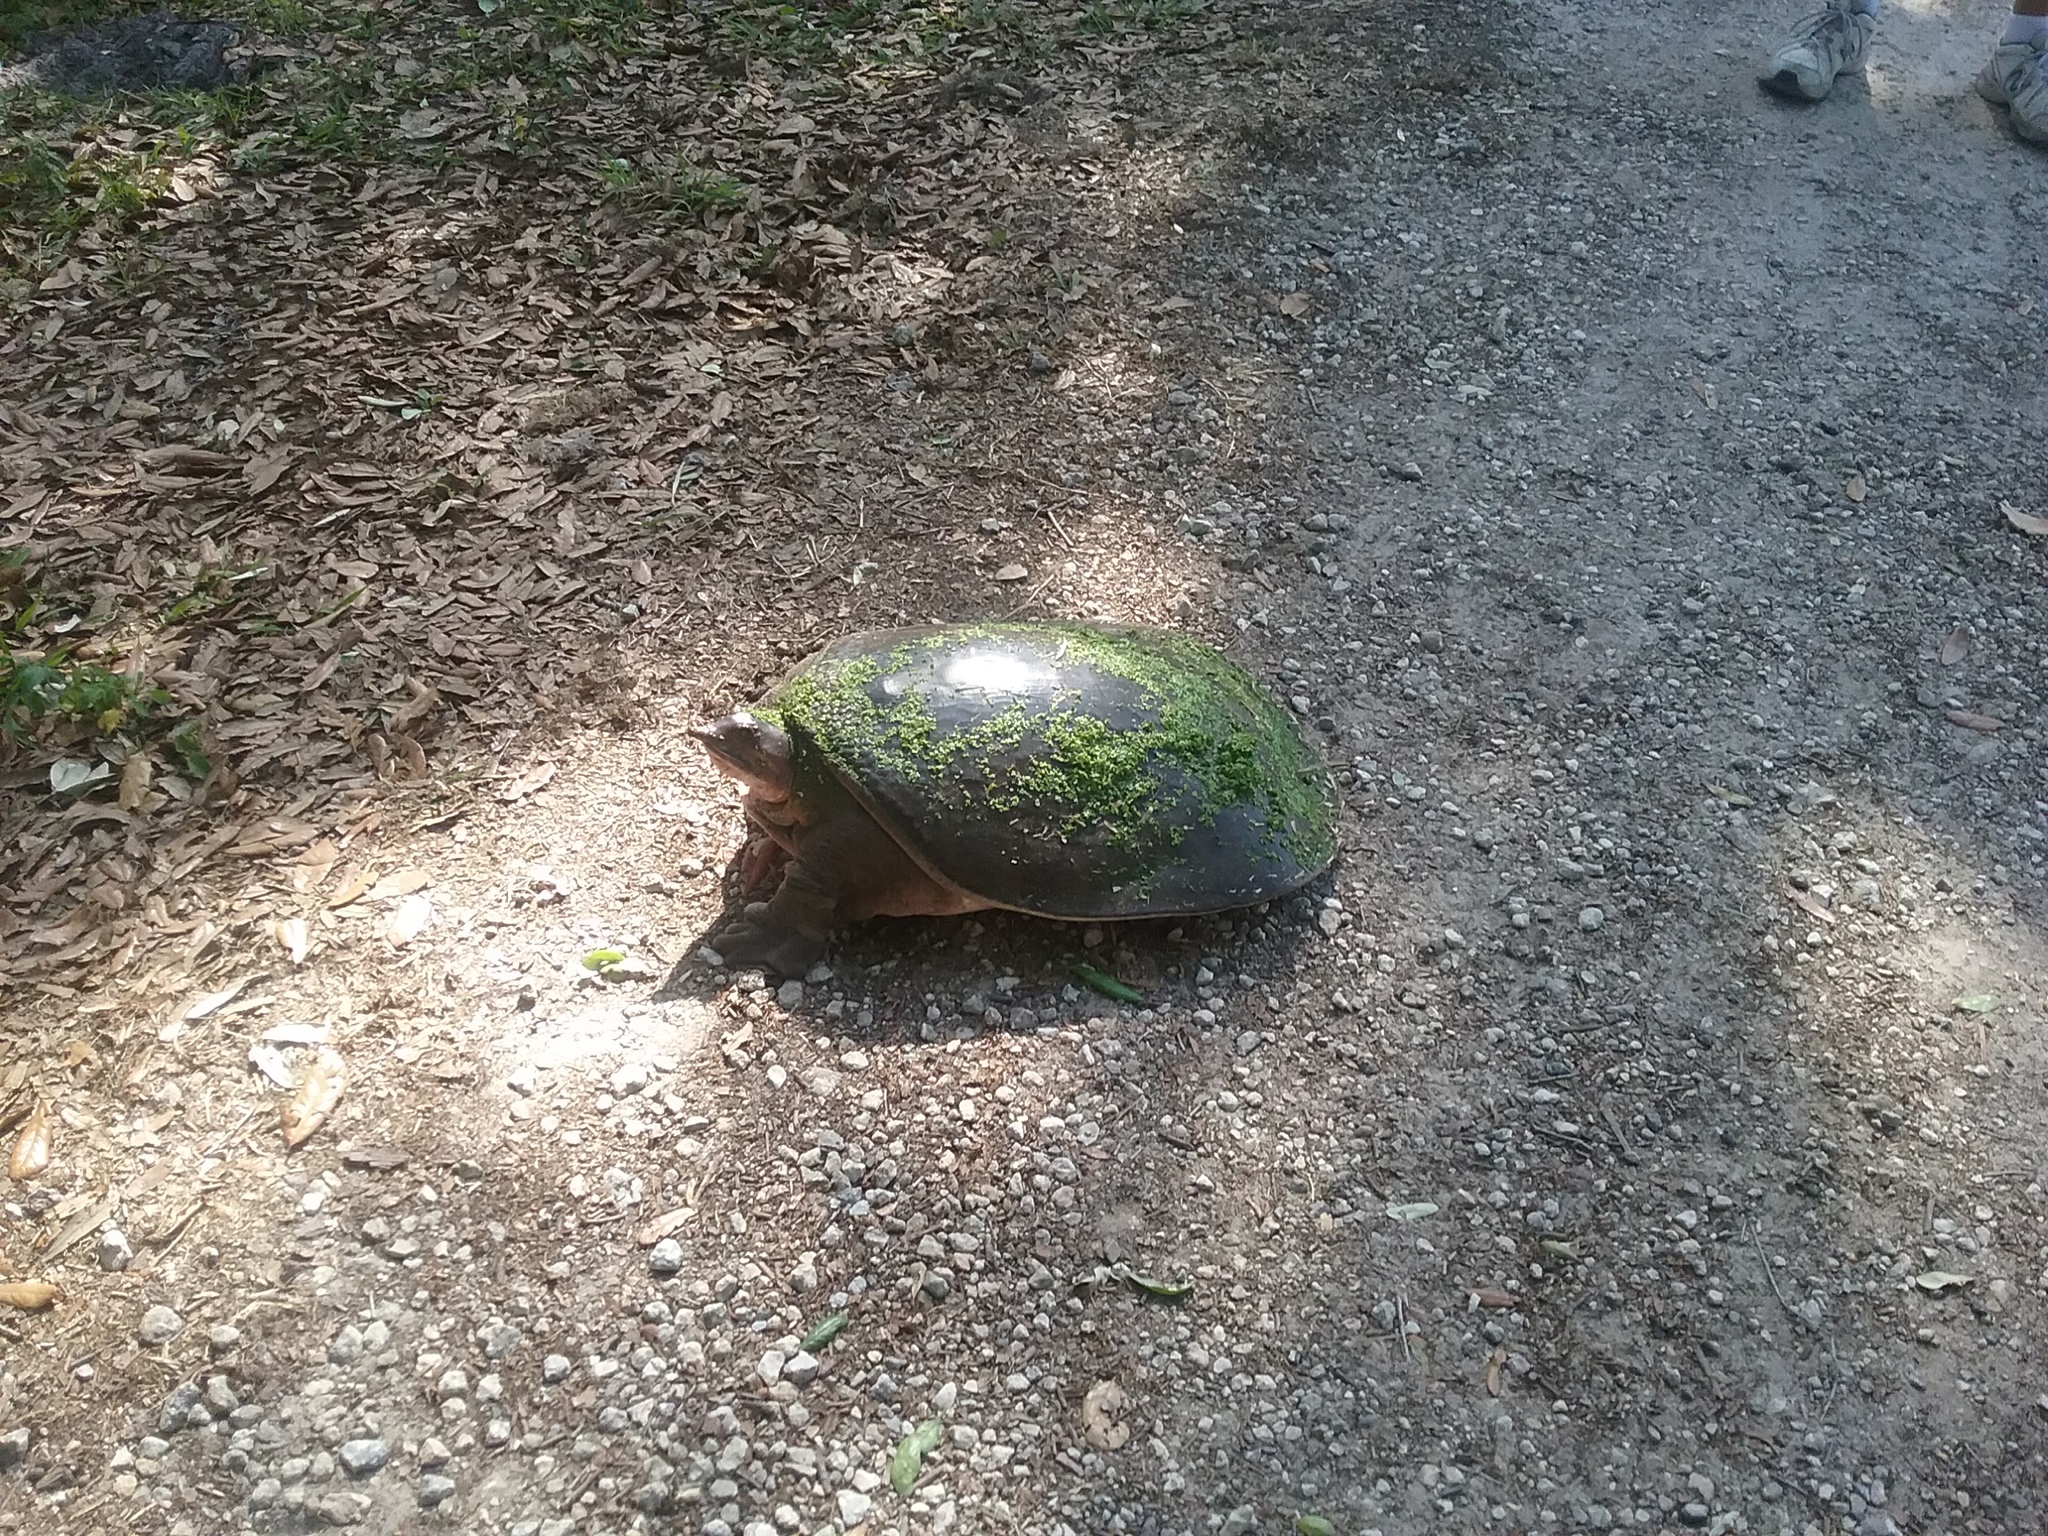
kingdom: Animalia
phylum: Chordata
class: Testudines
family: Trionychidae
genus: Apalone
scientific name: Apalone ferox
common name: Florida softshell turtle
